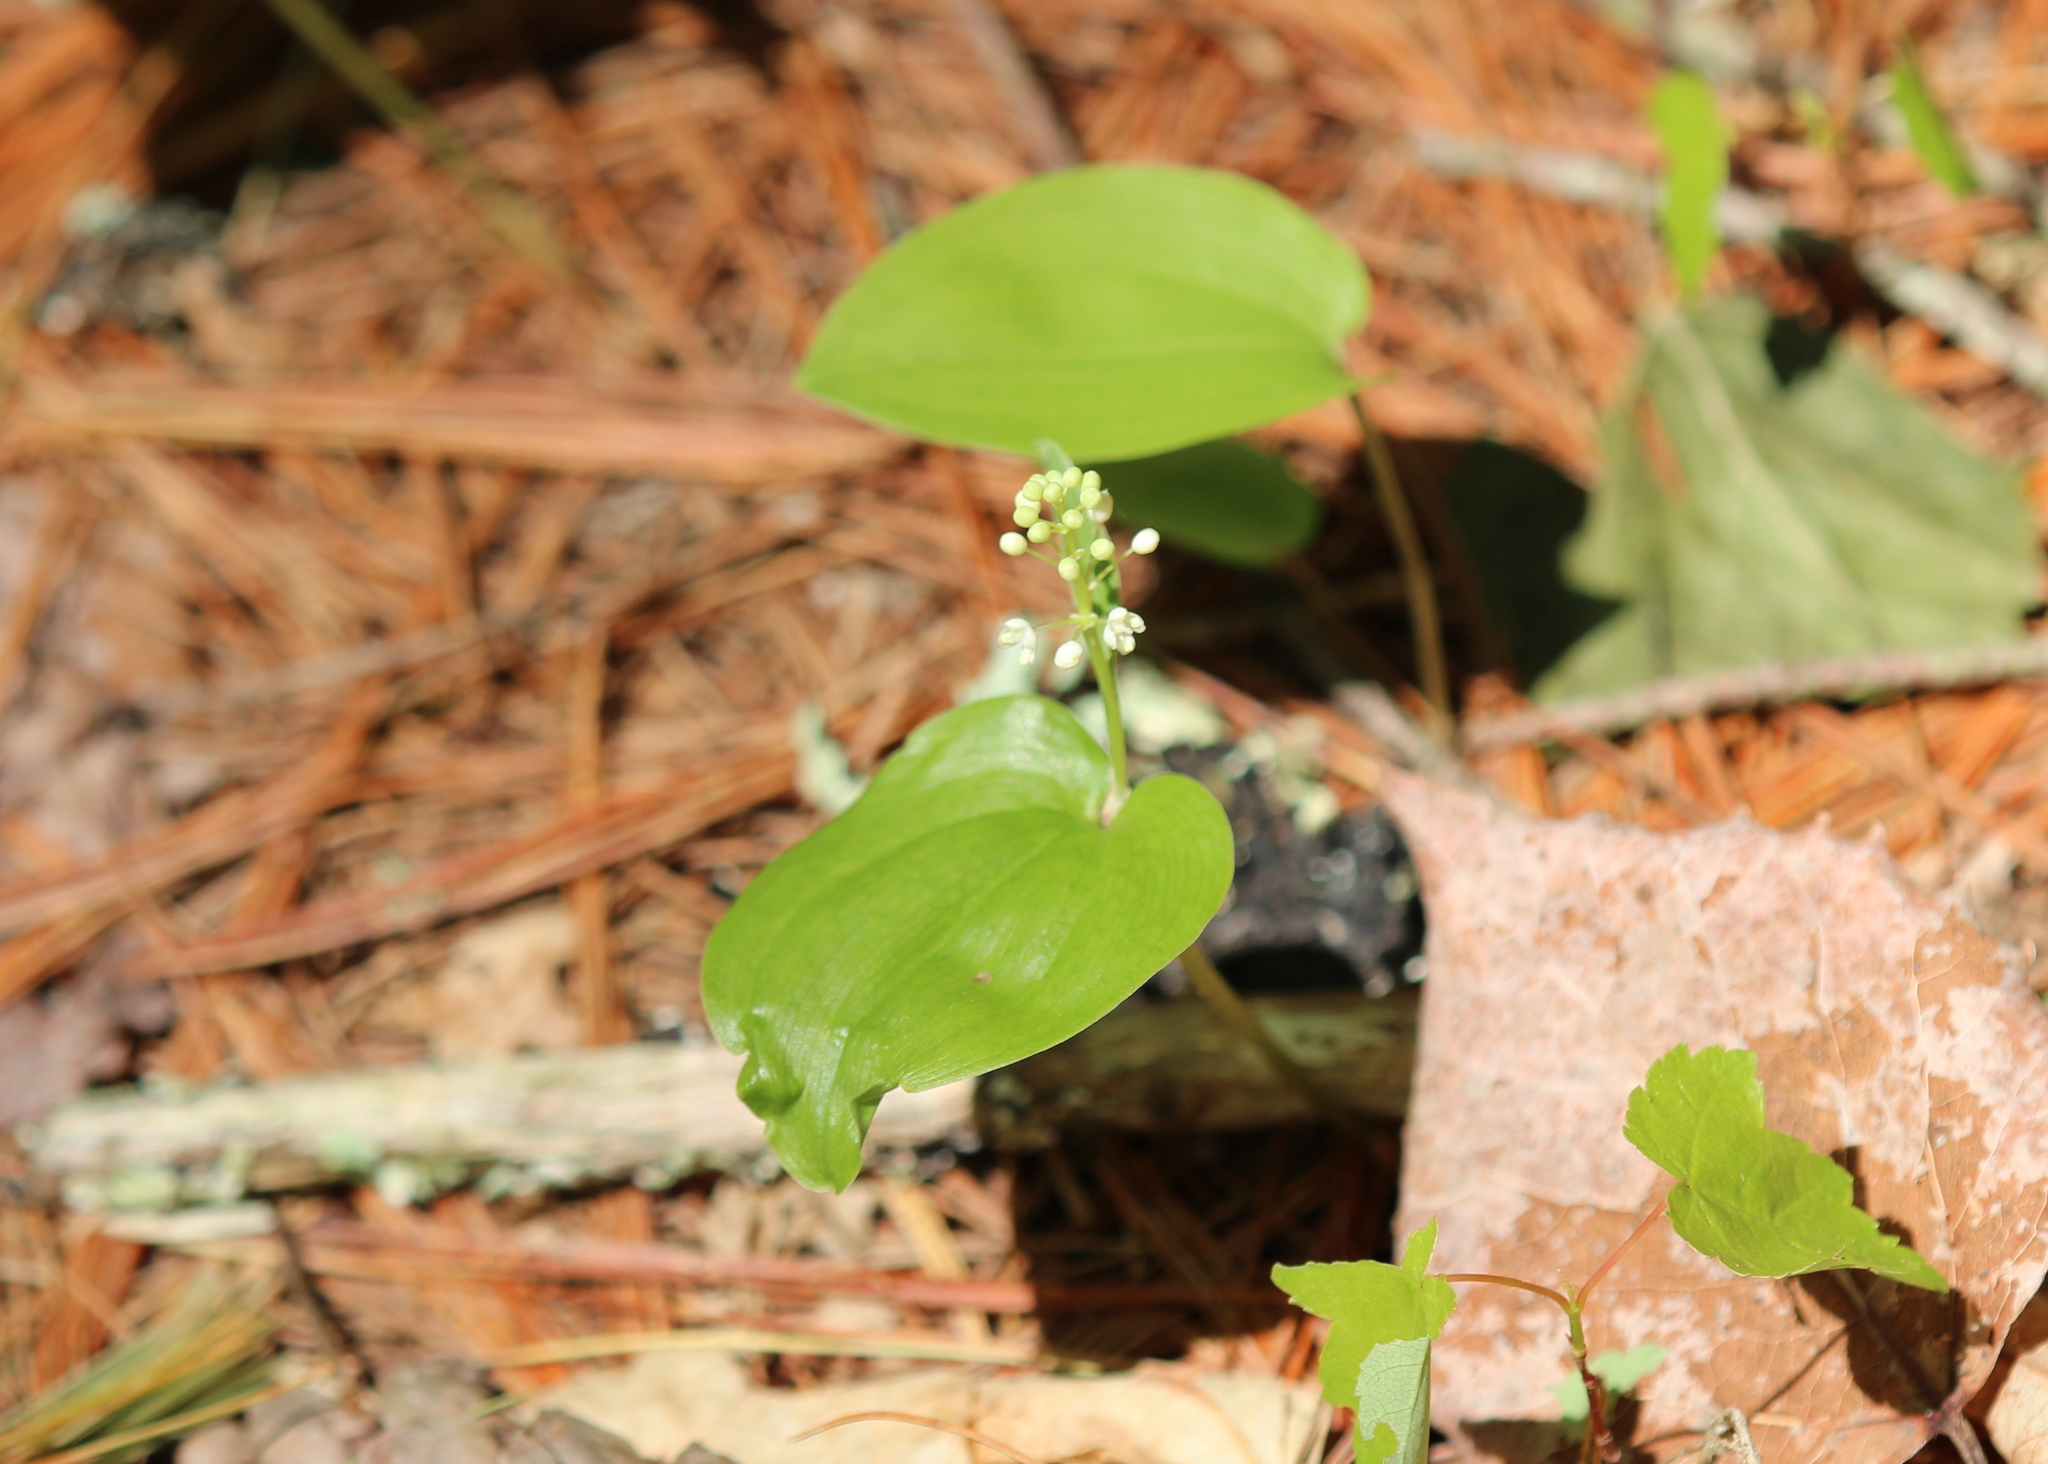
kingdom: Plantae
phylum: Tracheophyta
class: Liliopsida
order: Asparagales
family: Asparagaceae
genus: Maianthemum
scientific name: Maianthemum canadense
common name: False lily-of-the-valley
